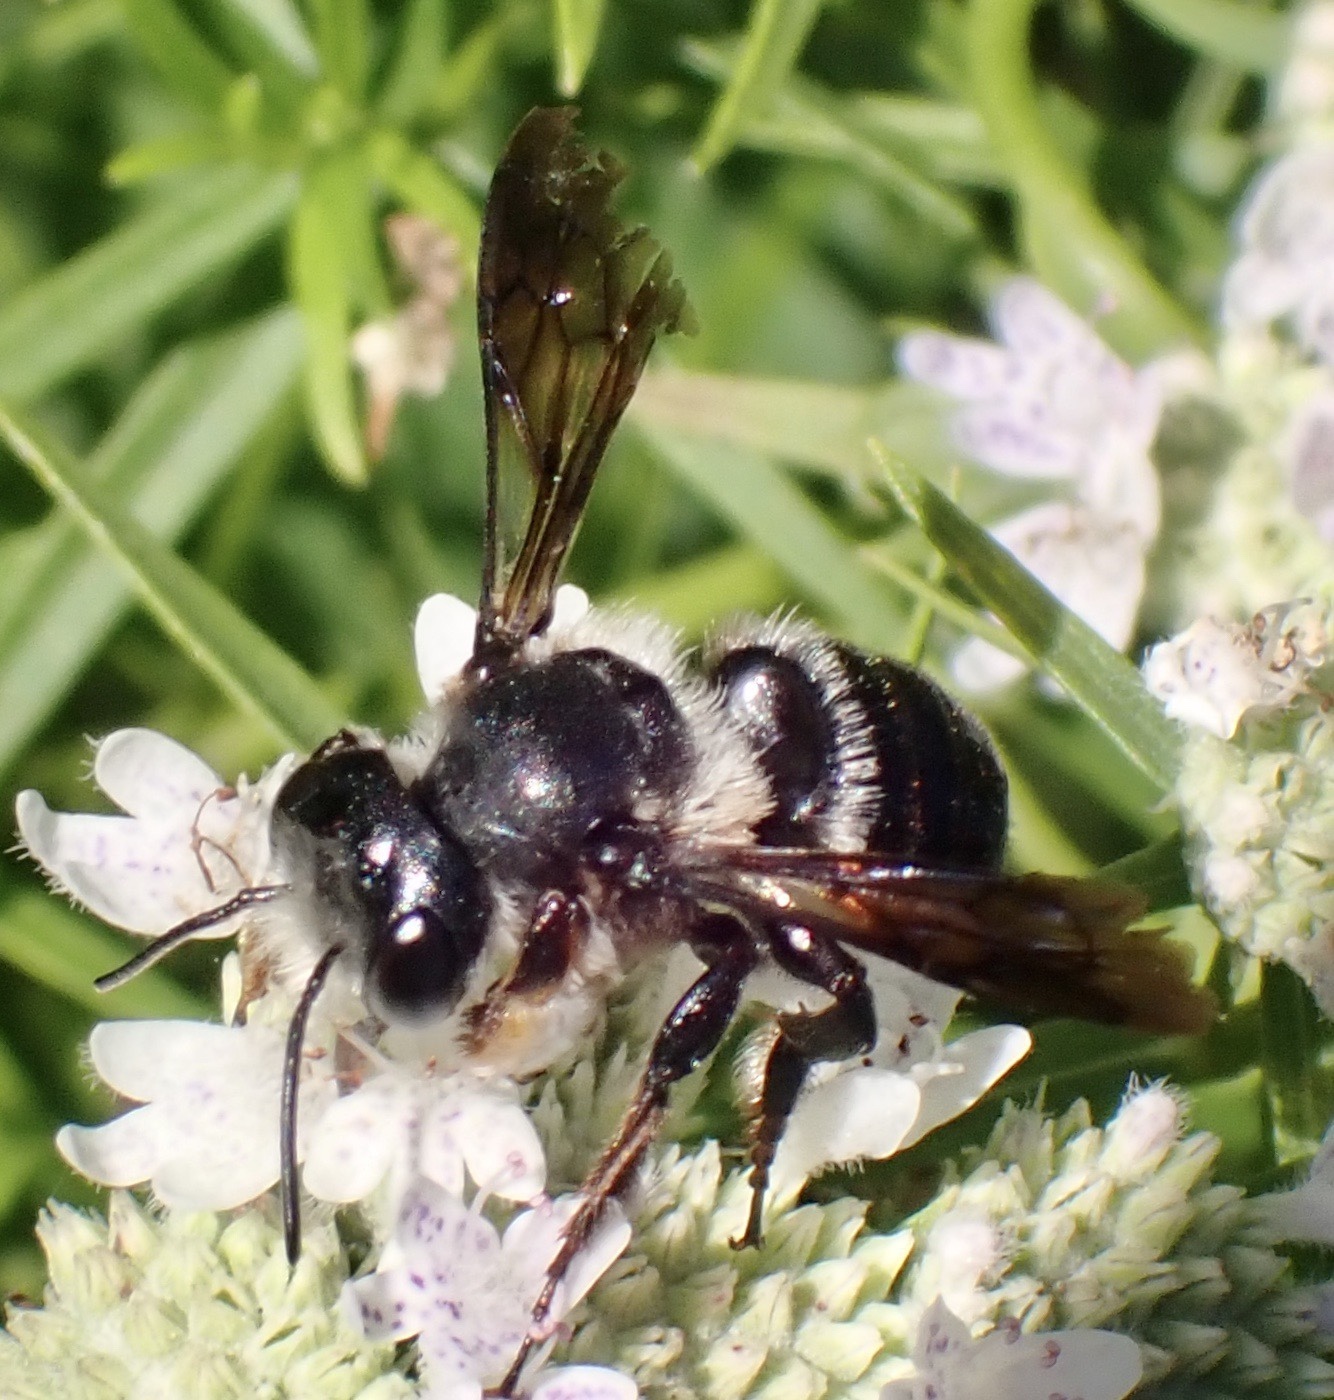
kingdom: Animalia
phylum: Arthropoda
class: Insecta
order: Hymenoptera
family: Megachilidae
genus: Megachile
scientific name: Megachile xylocopoides
